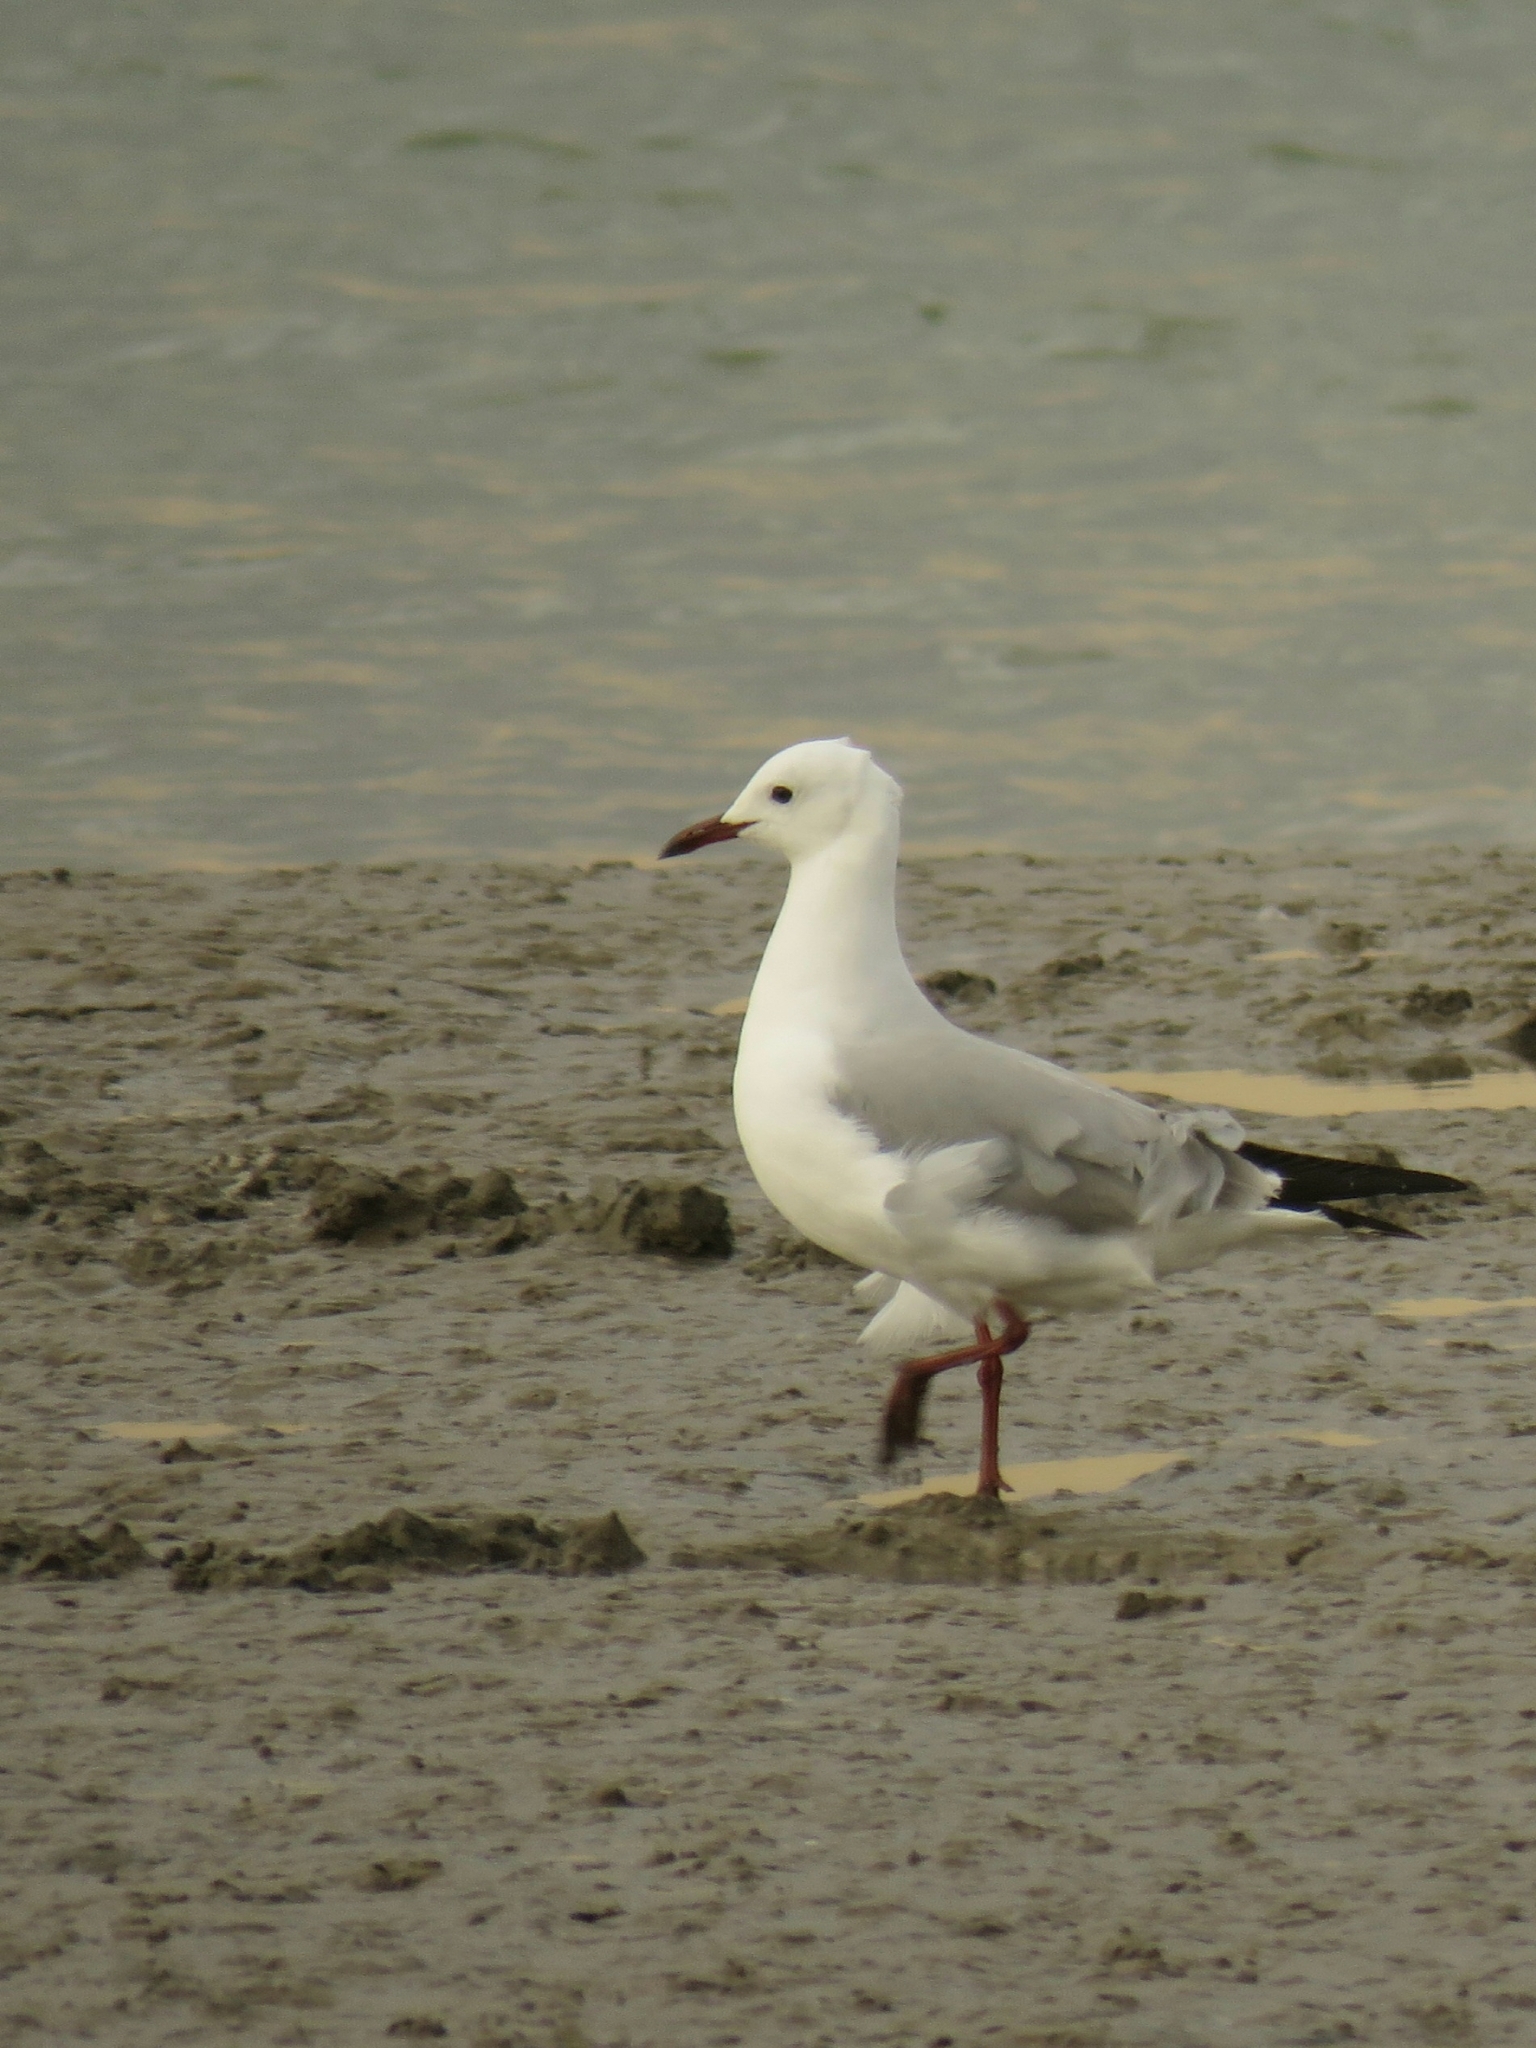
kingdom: Animalia
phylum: Chordata
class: Aves
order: Charadriiformes
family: Laridae
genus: Chroicocephalus
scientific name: Chroicocephalus hartlaubii
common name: Hartlaub's gull
